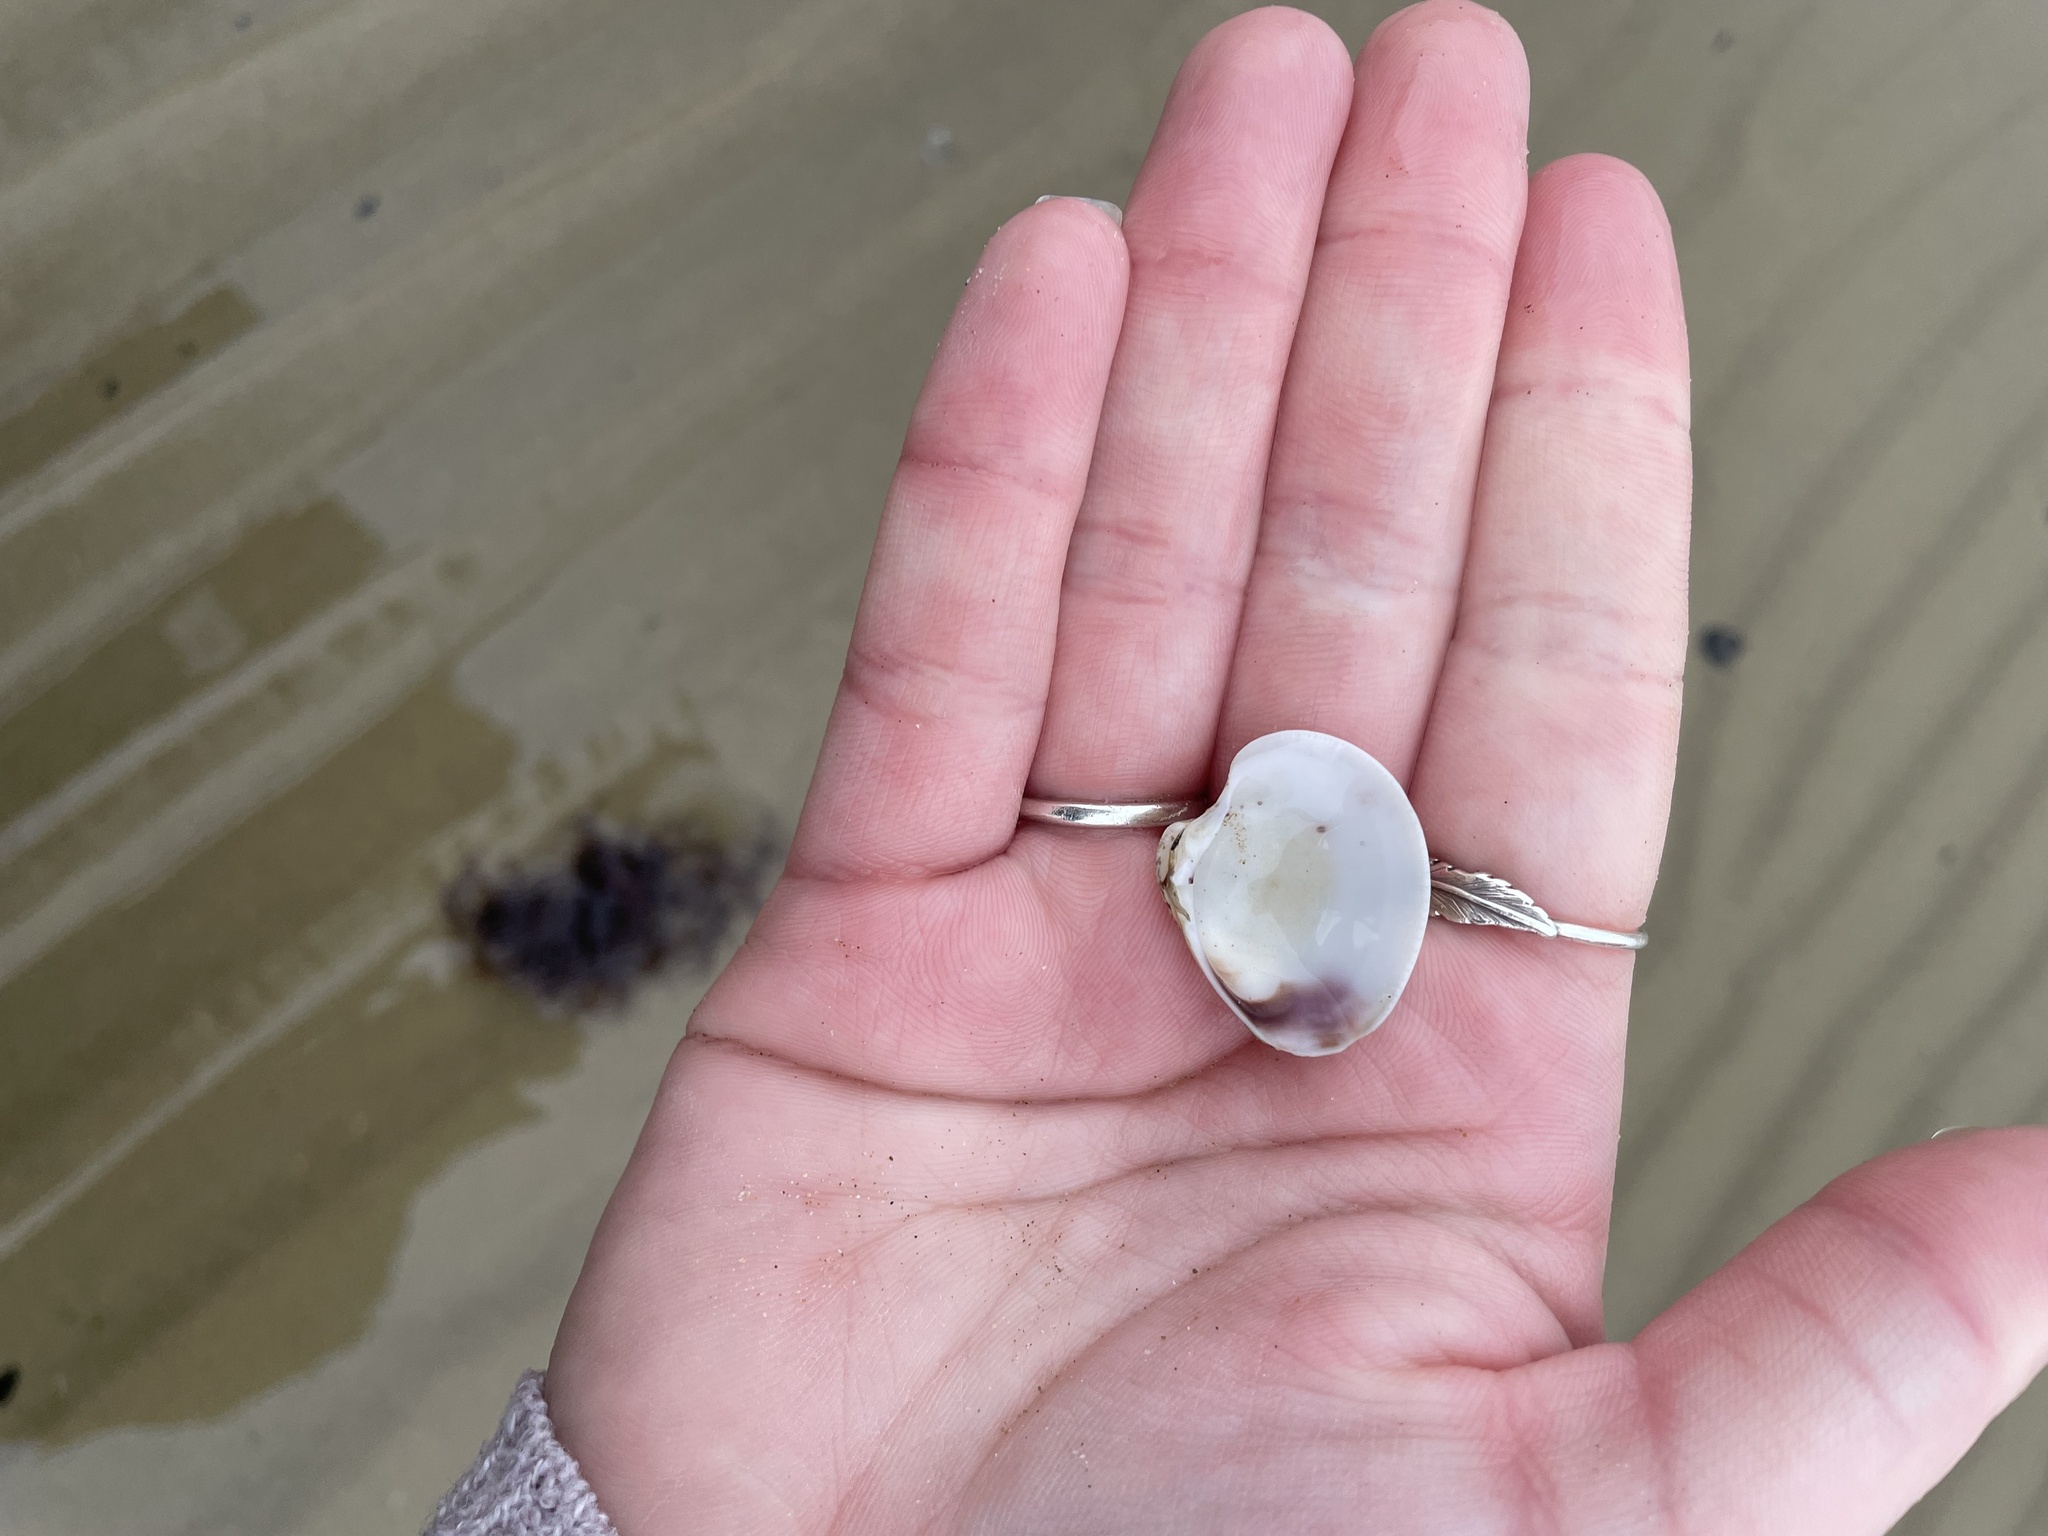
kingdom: Animalia
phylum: Mollusca
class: Bivalvia
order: Venerida
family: Veneridae
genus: Chamelea
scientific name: Chamelea gallina
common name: Chicken venus
